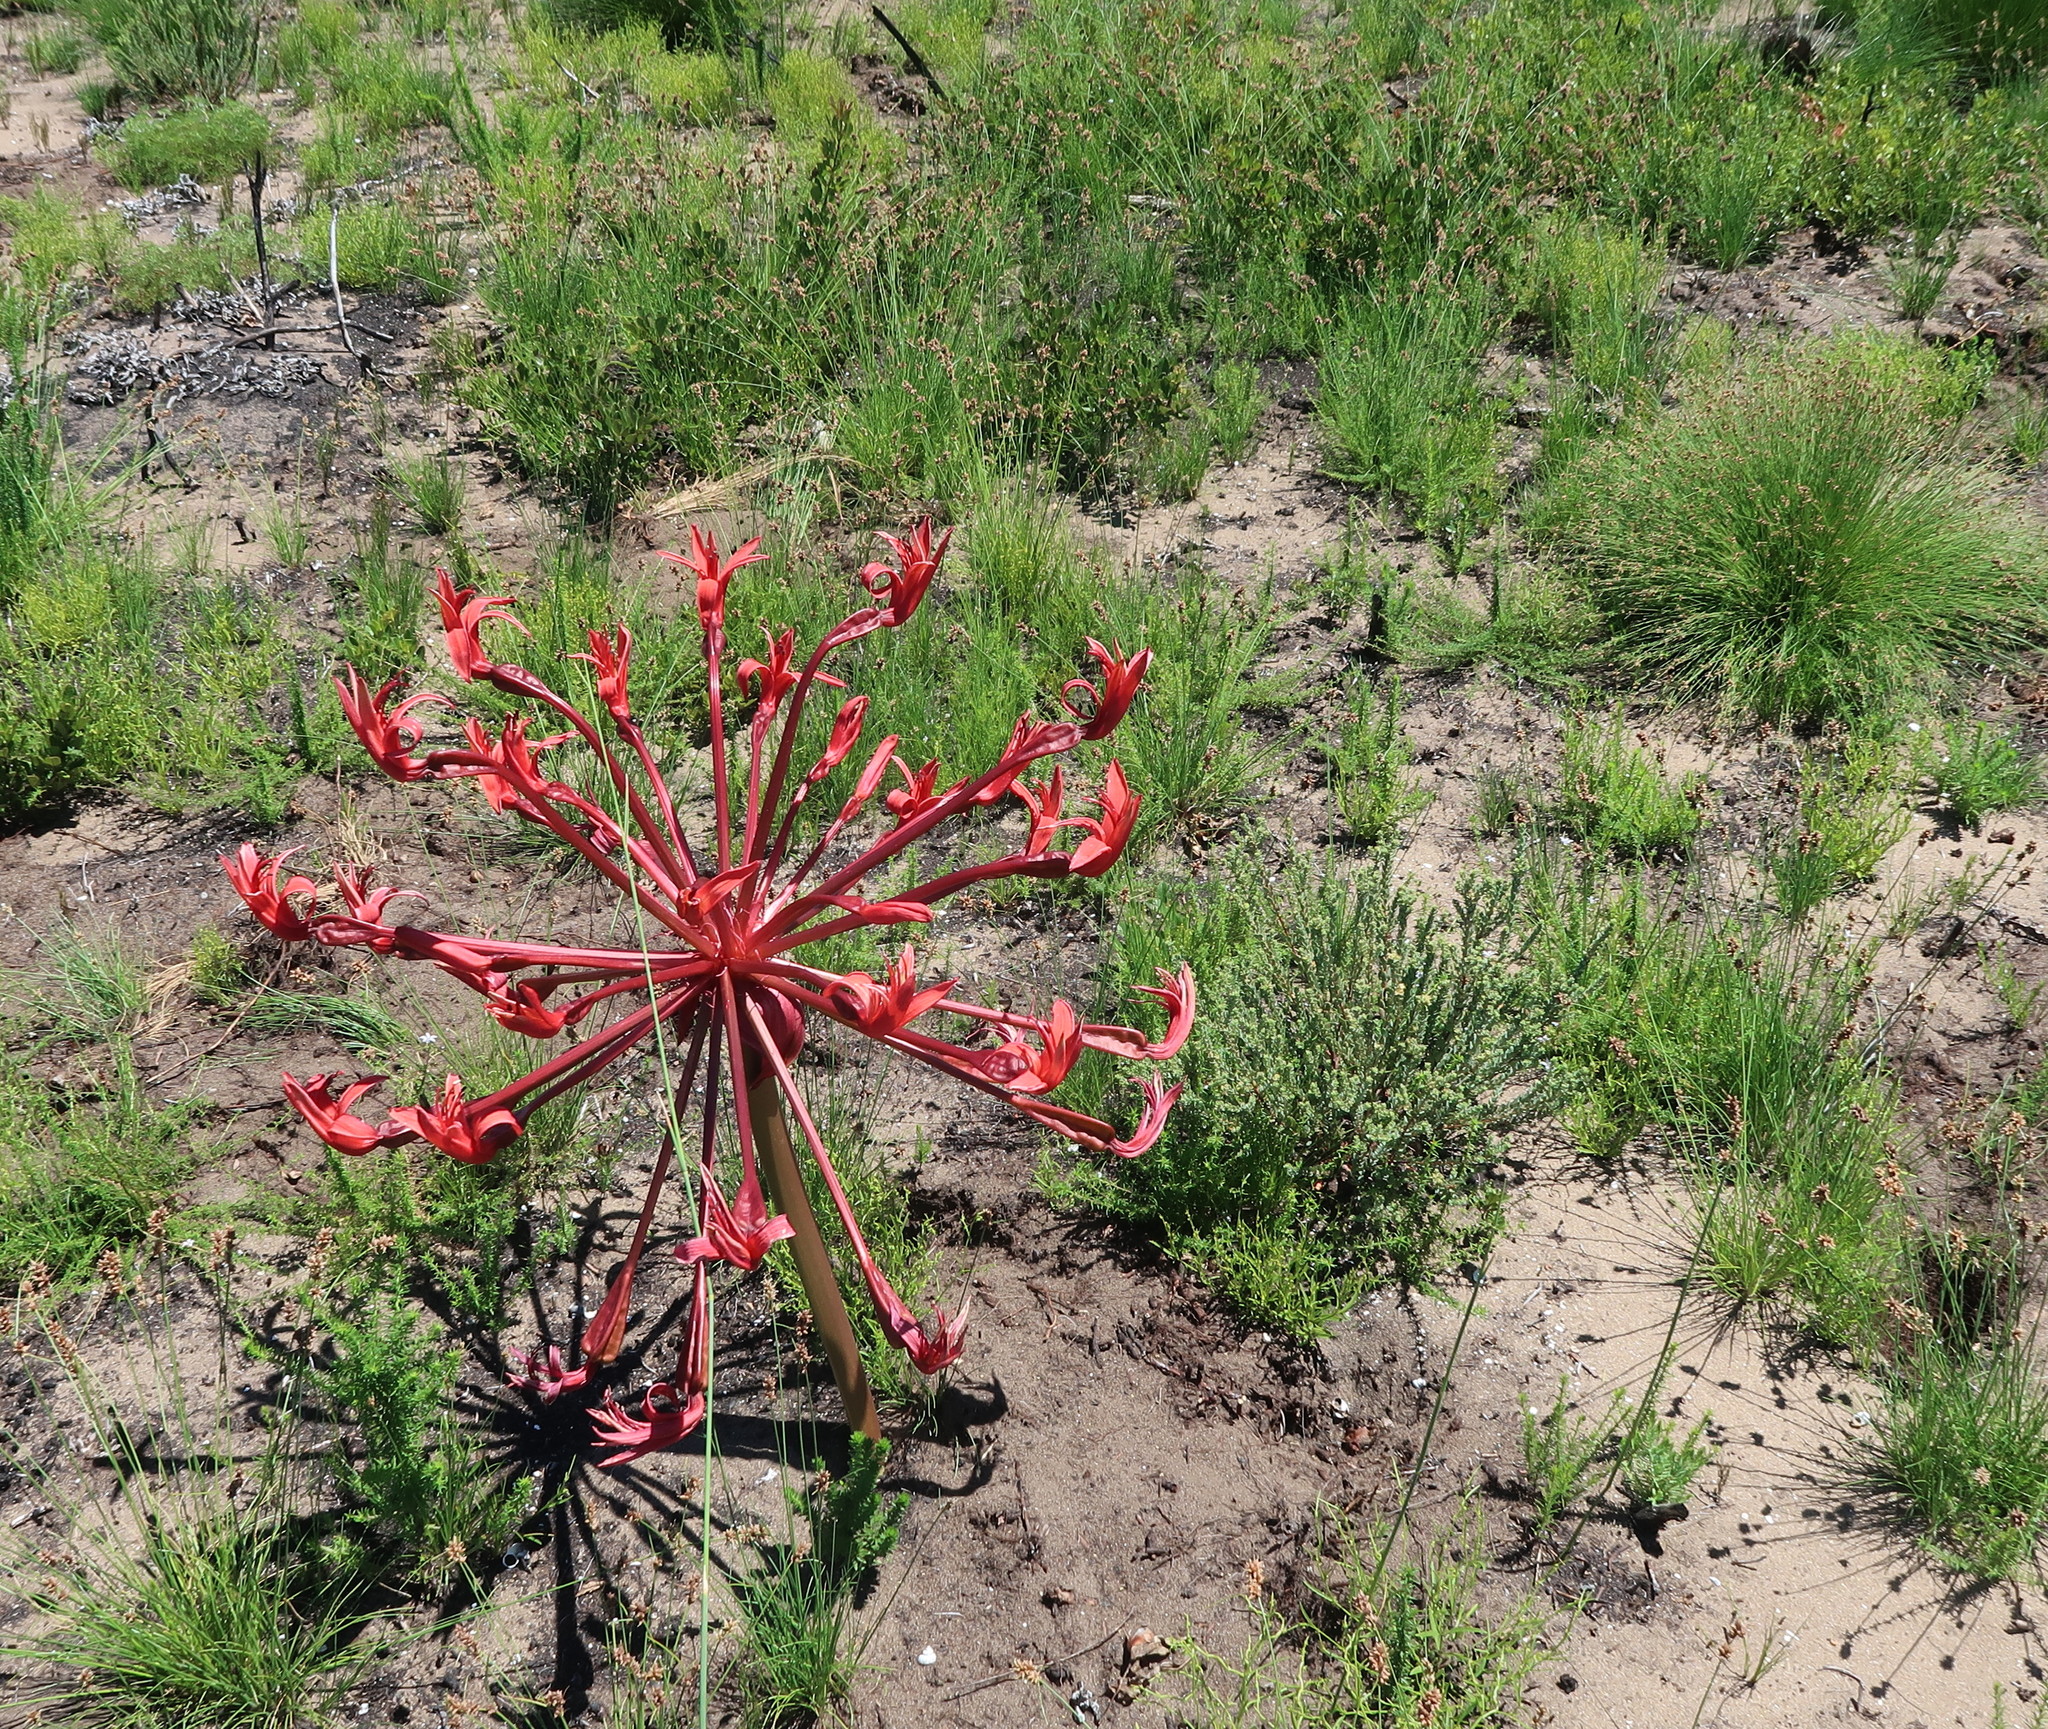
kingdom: Plantae
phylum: Tracheophyta
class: Liliopsida
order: Asparagales
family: Amaryllidaceae
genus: Brunsvigia
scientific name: Brunsvigia orientalis
